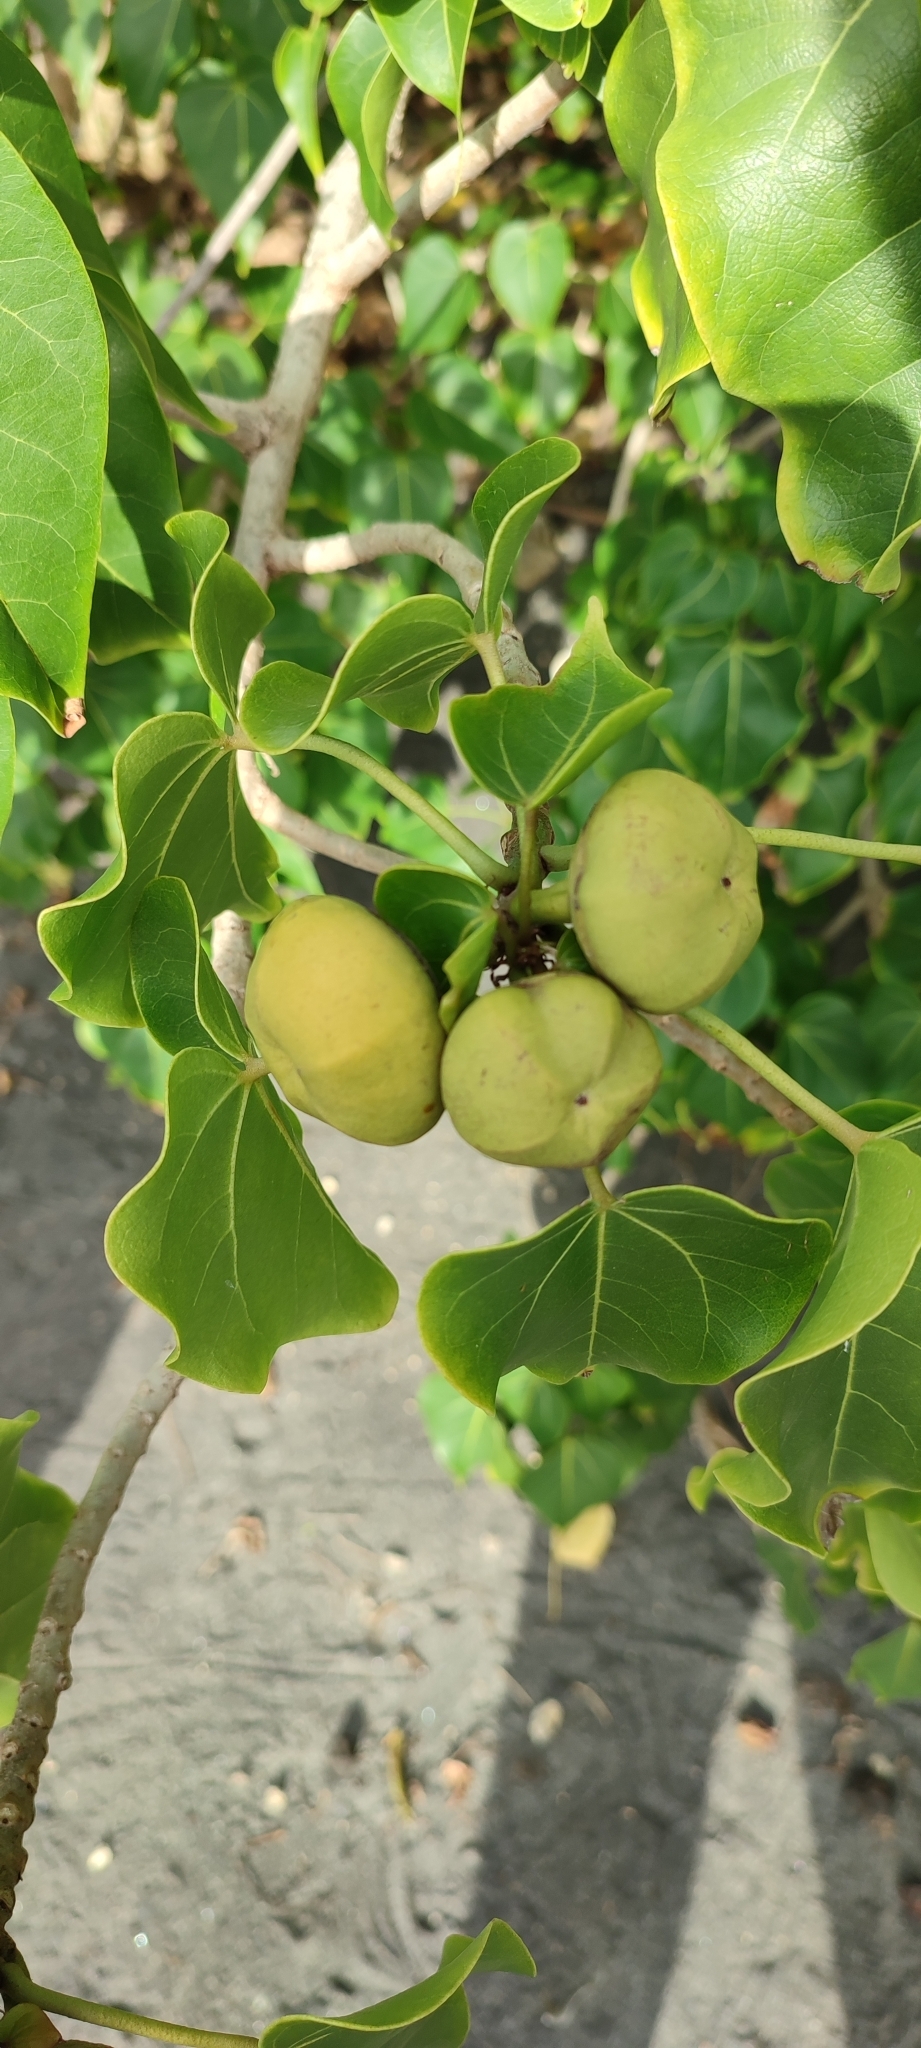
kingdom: Plantae
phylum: Tracheophyta
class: Magnoliopsida
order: Malvales
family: Malvaceae
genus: Thespesia
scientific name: Thespesia populnea
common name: Seaside mahoe
